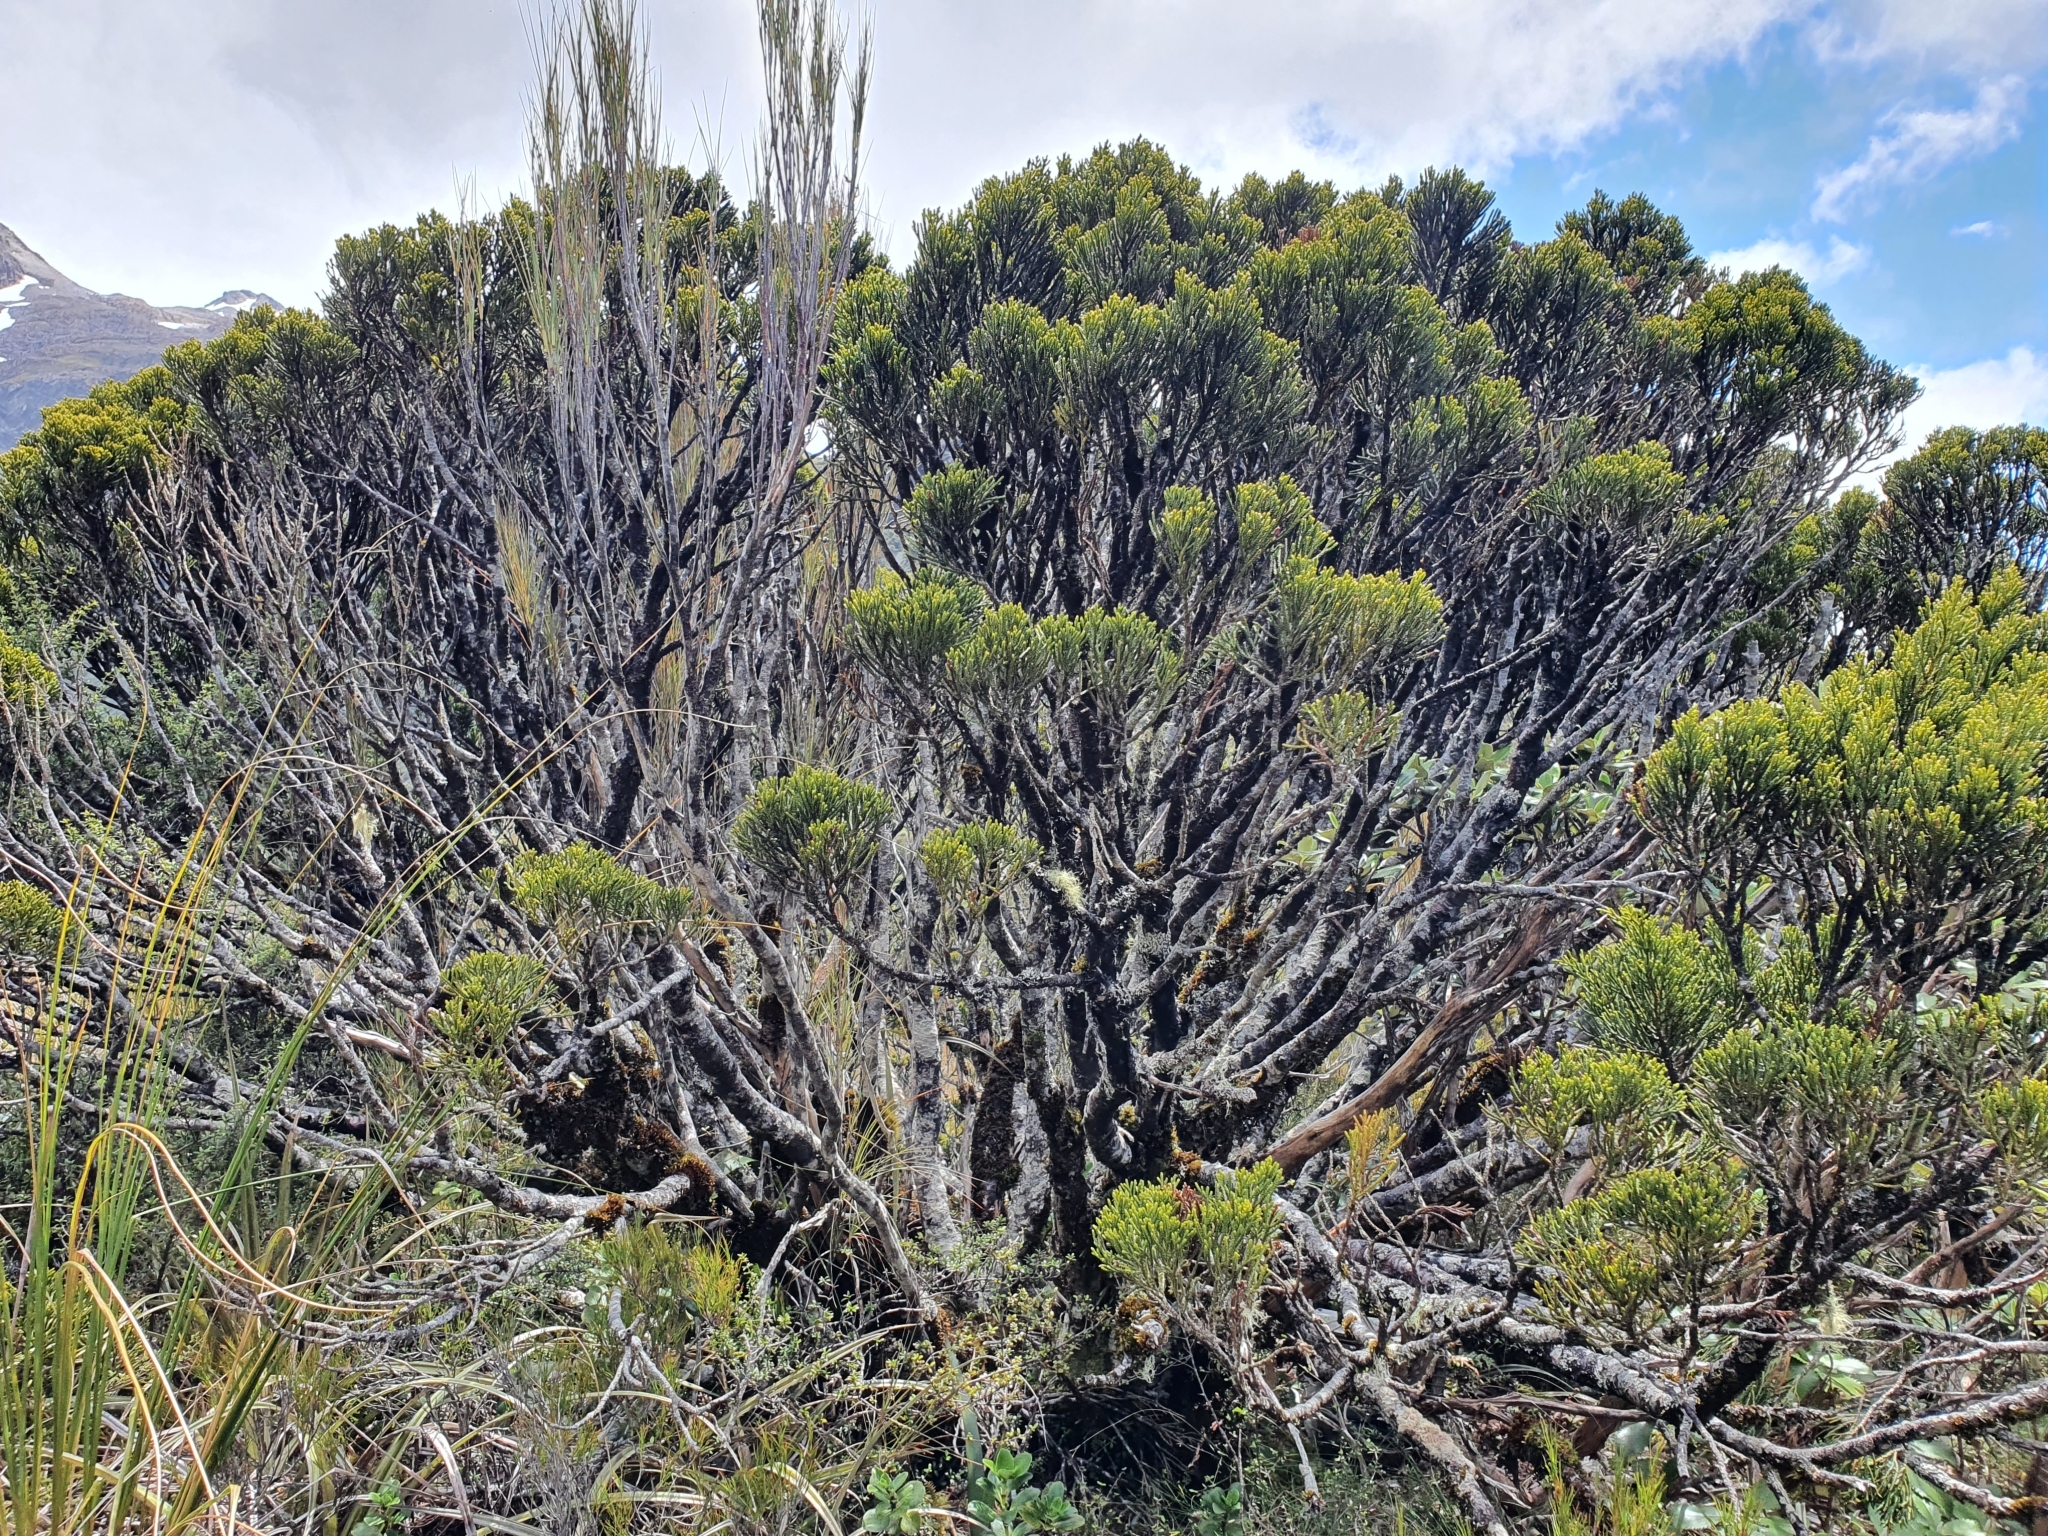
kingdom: Plantae
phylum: Tracheophyta
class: Pinopsida
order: Pinales
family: Podocarpaceae
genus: Halocarpus
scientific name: Halocarpus bidwillii
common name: Bog pine
